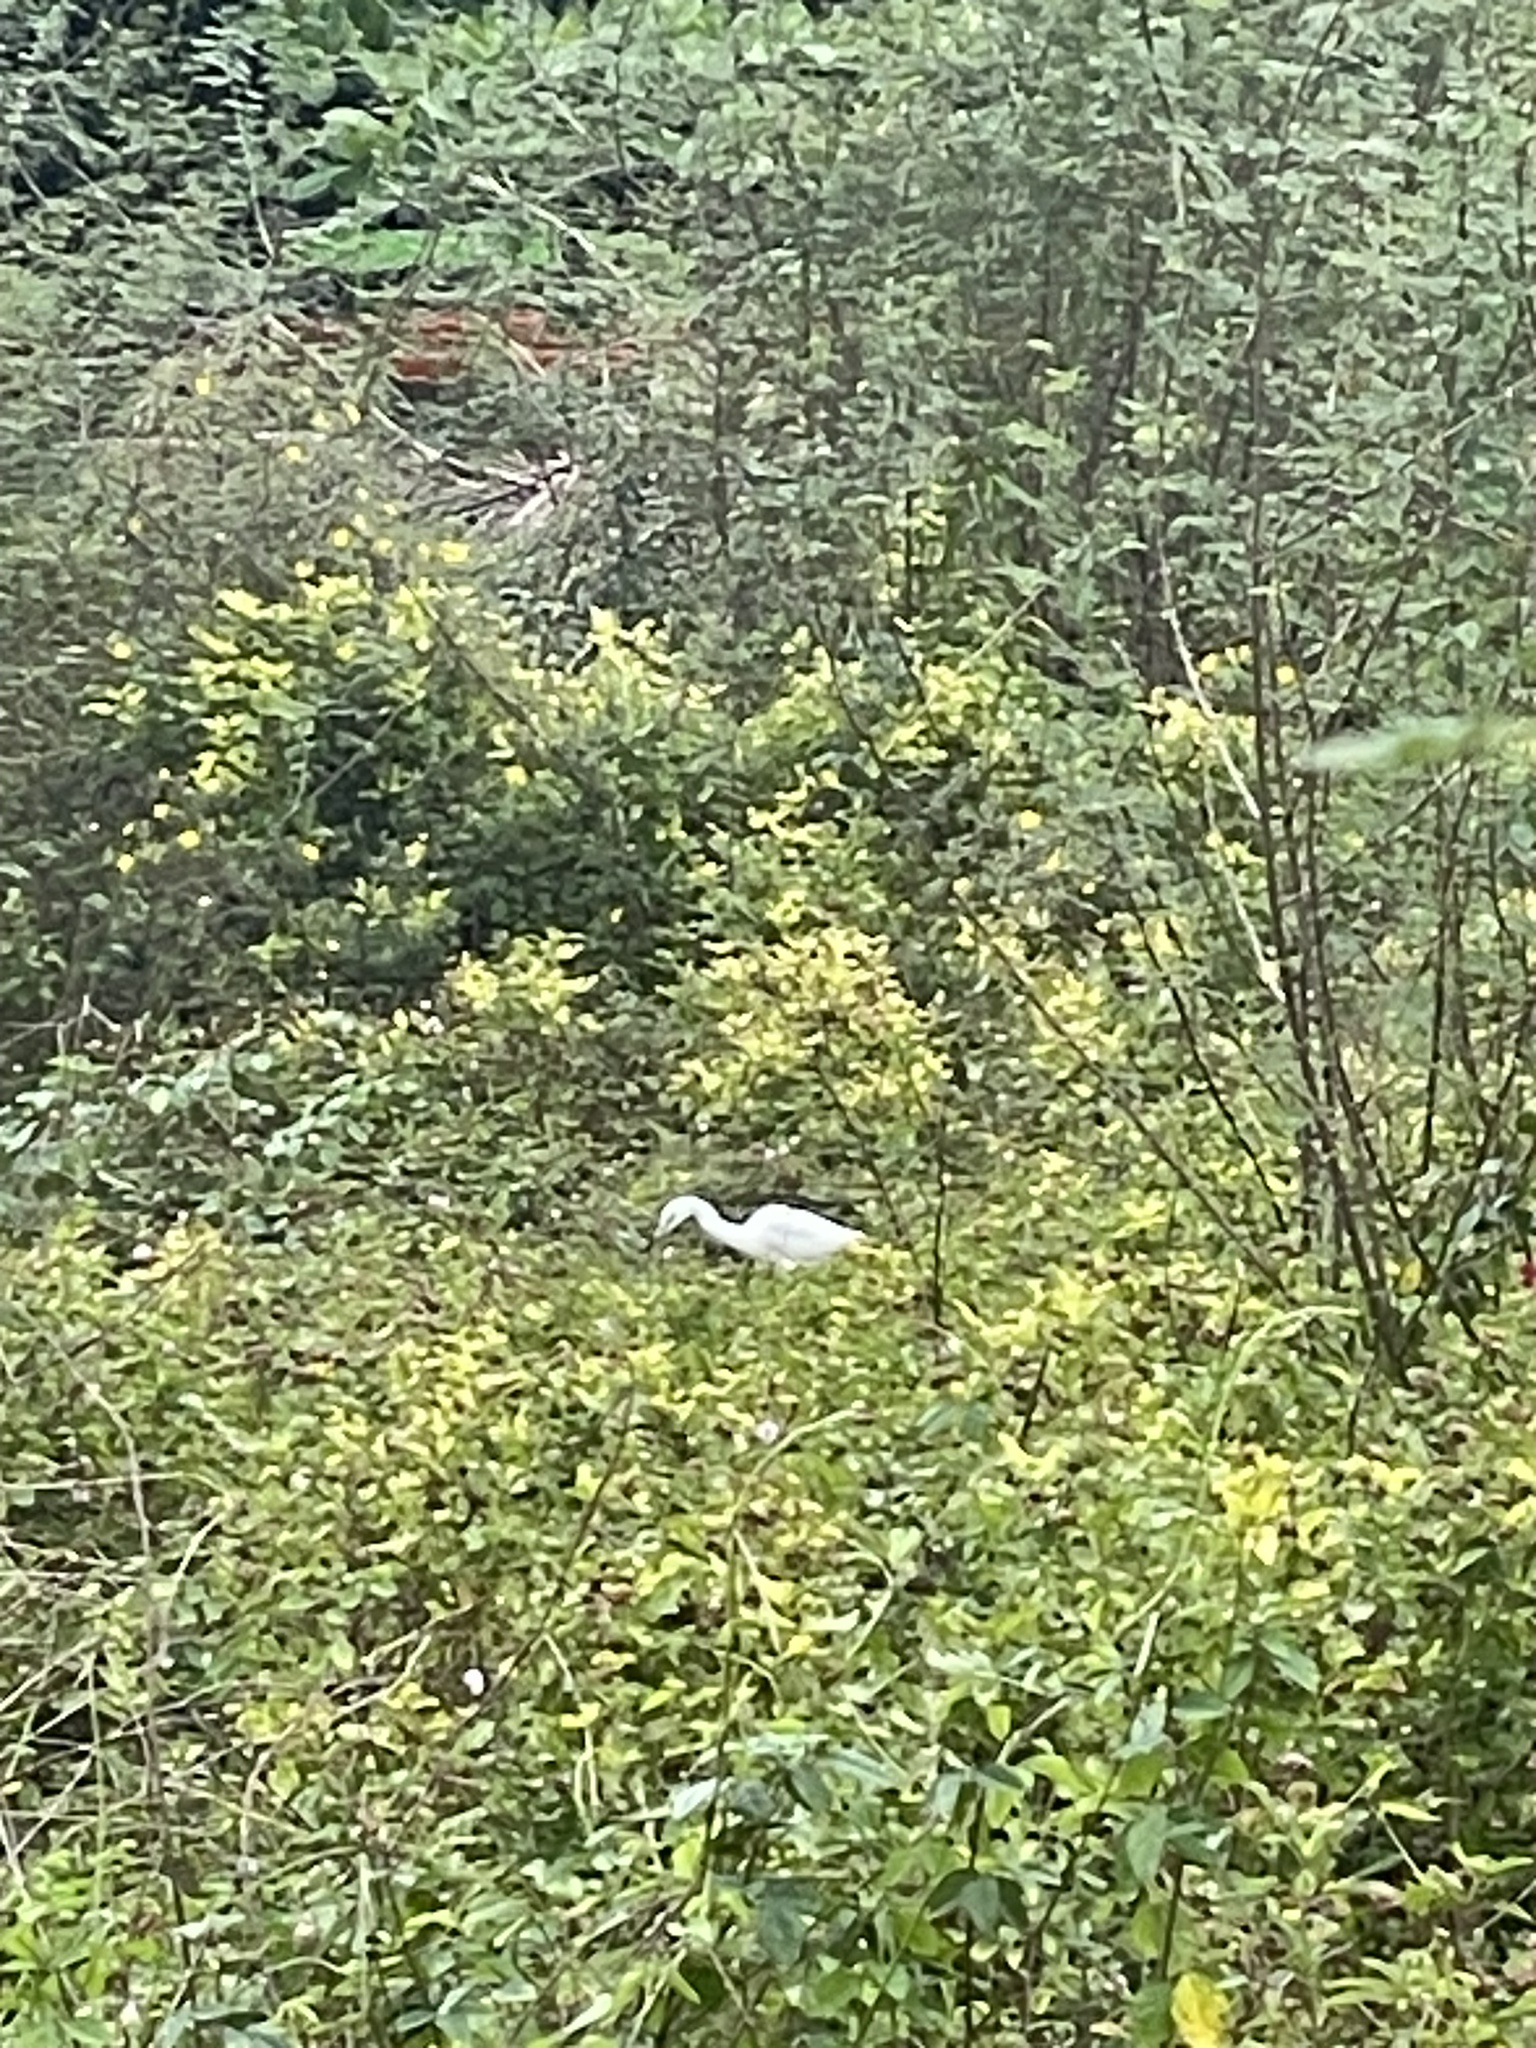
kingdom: Animalia
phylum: Chordata
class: Aves
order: Pelecaniformes
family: Ardeidae
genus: Egretta
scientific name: Egretta caerulea
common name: Little blue heron
